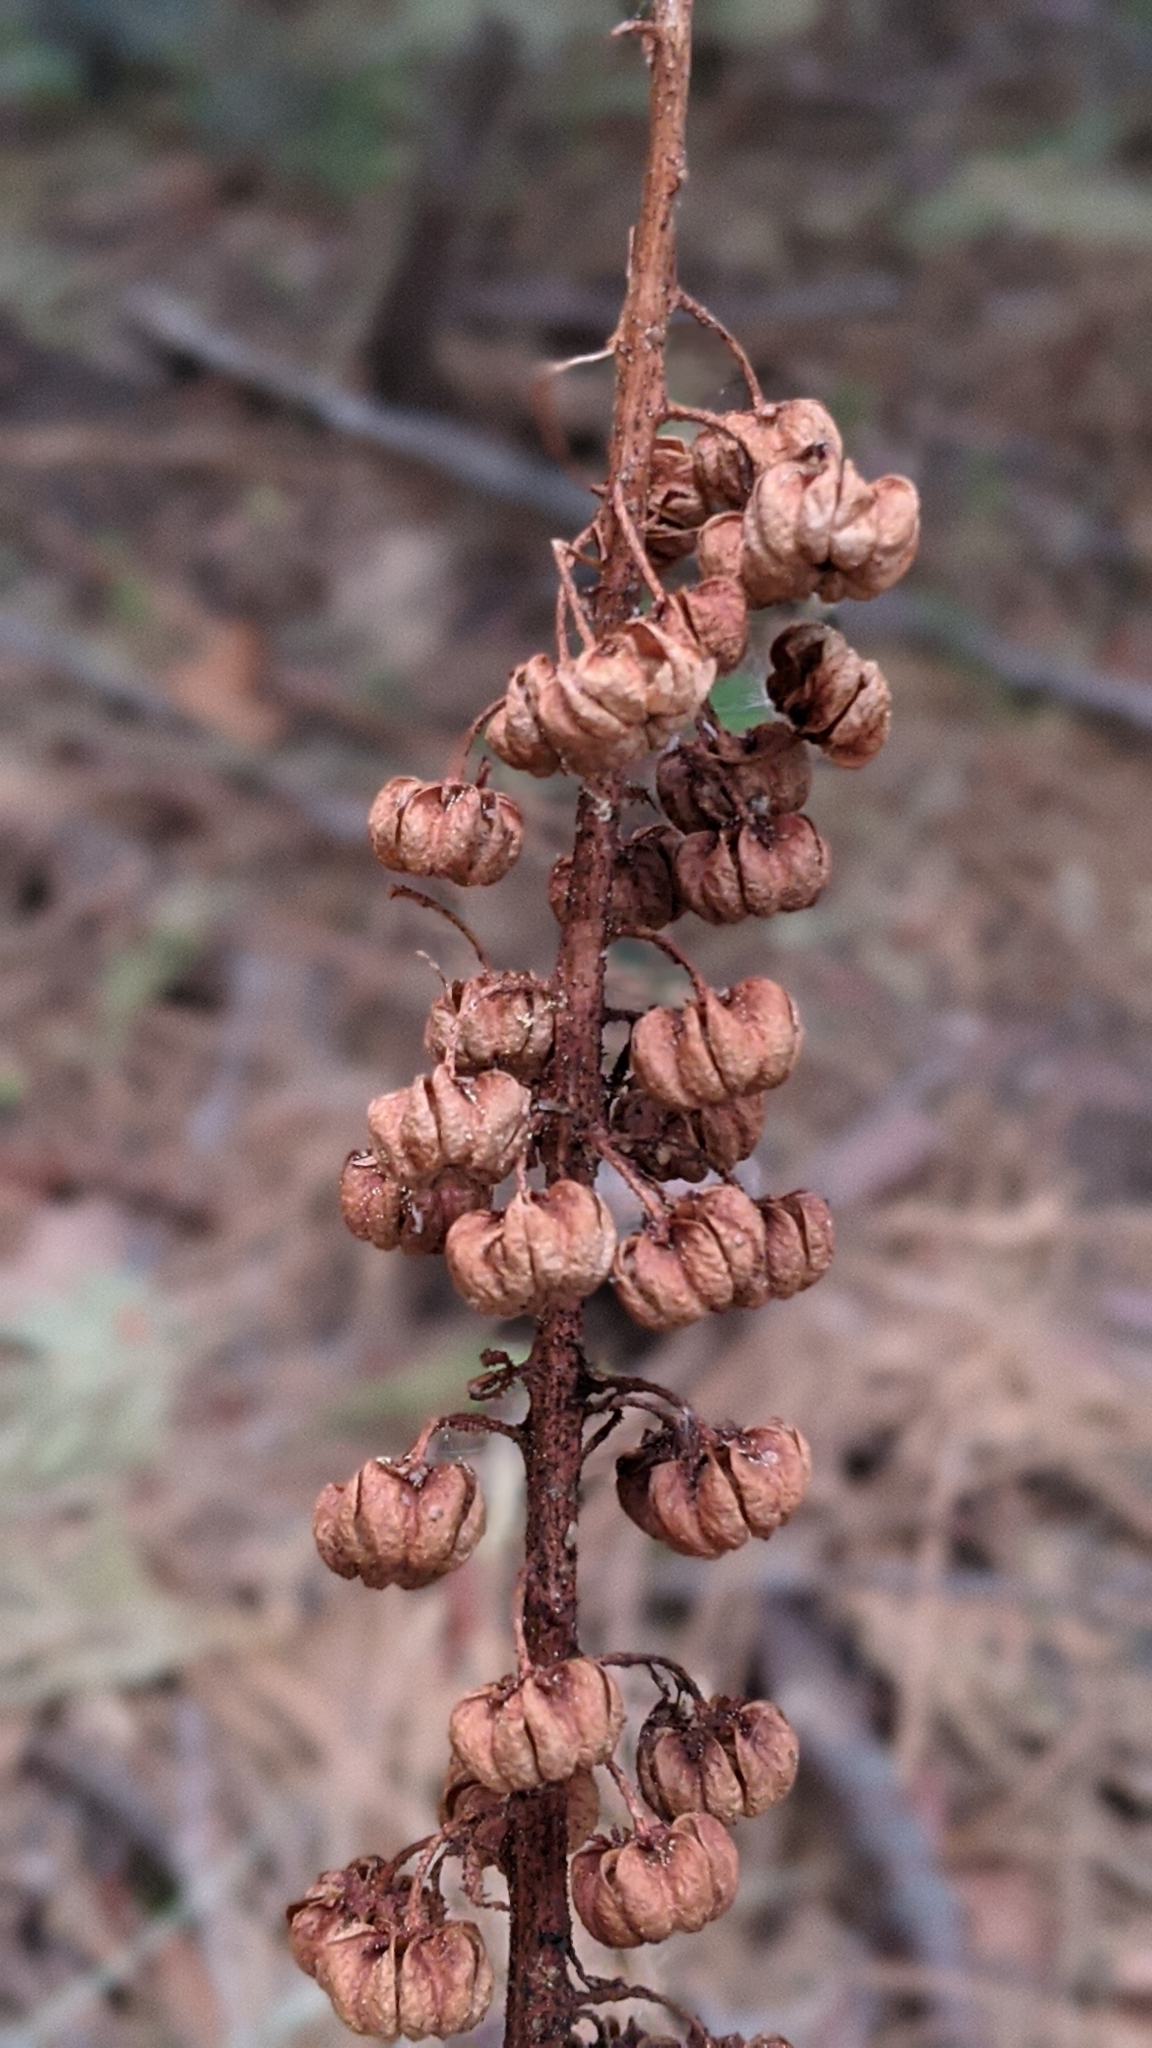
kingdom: Plantae
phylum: Tracheophyta
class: Magnoliopsida
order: Ericales
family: Ericaceae
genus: Pterospora
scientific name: Pterospora andromedea
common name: Giant bird's-nest
